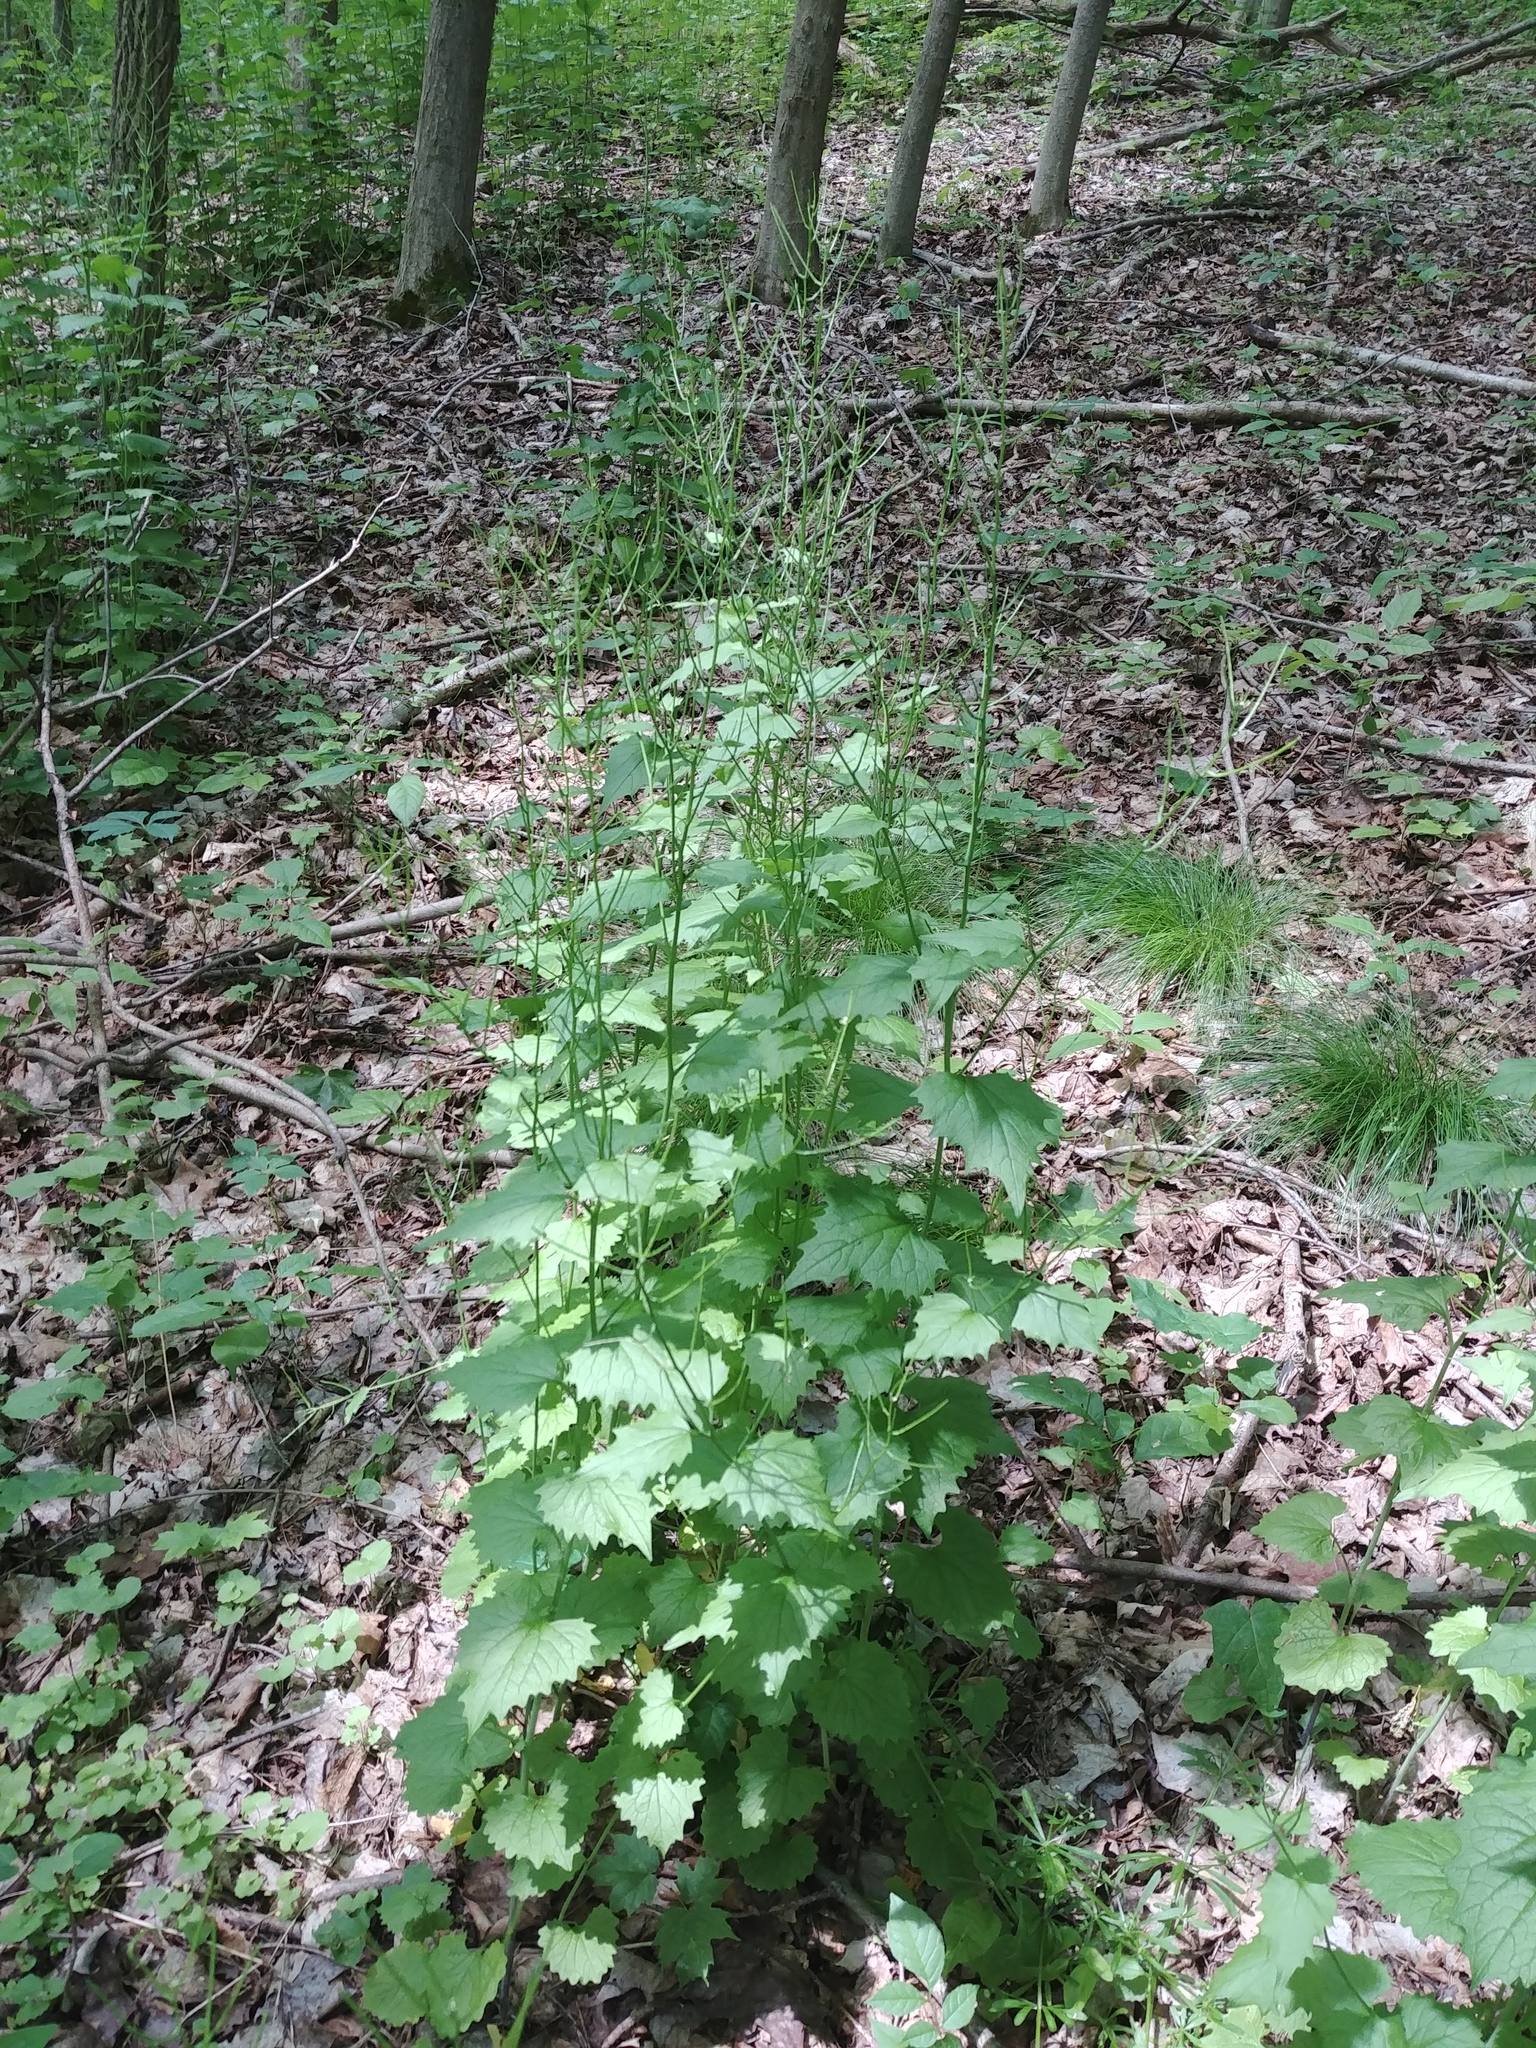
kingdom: Plantae
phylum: Tracheophyta
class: Magnoliopsida
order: Brassicales
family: Brassicaceae
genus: Alliaria
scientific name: Alliaria petiolata
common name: Garlic mustard
